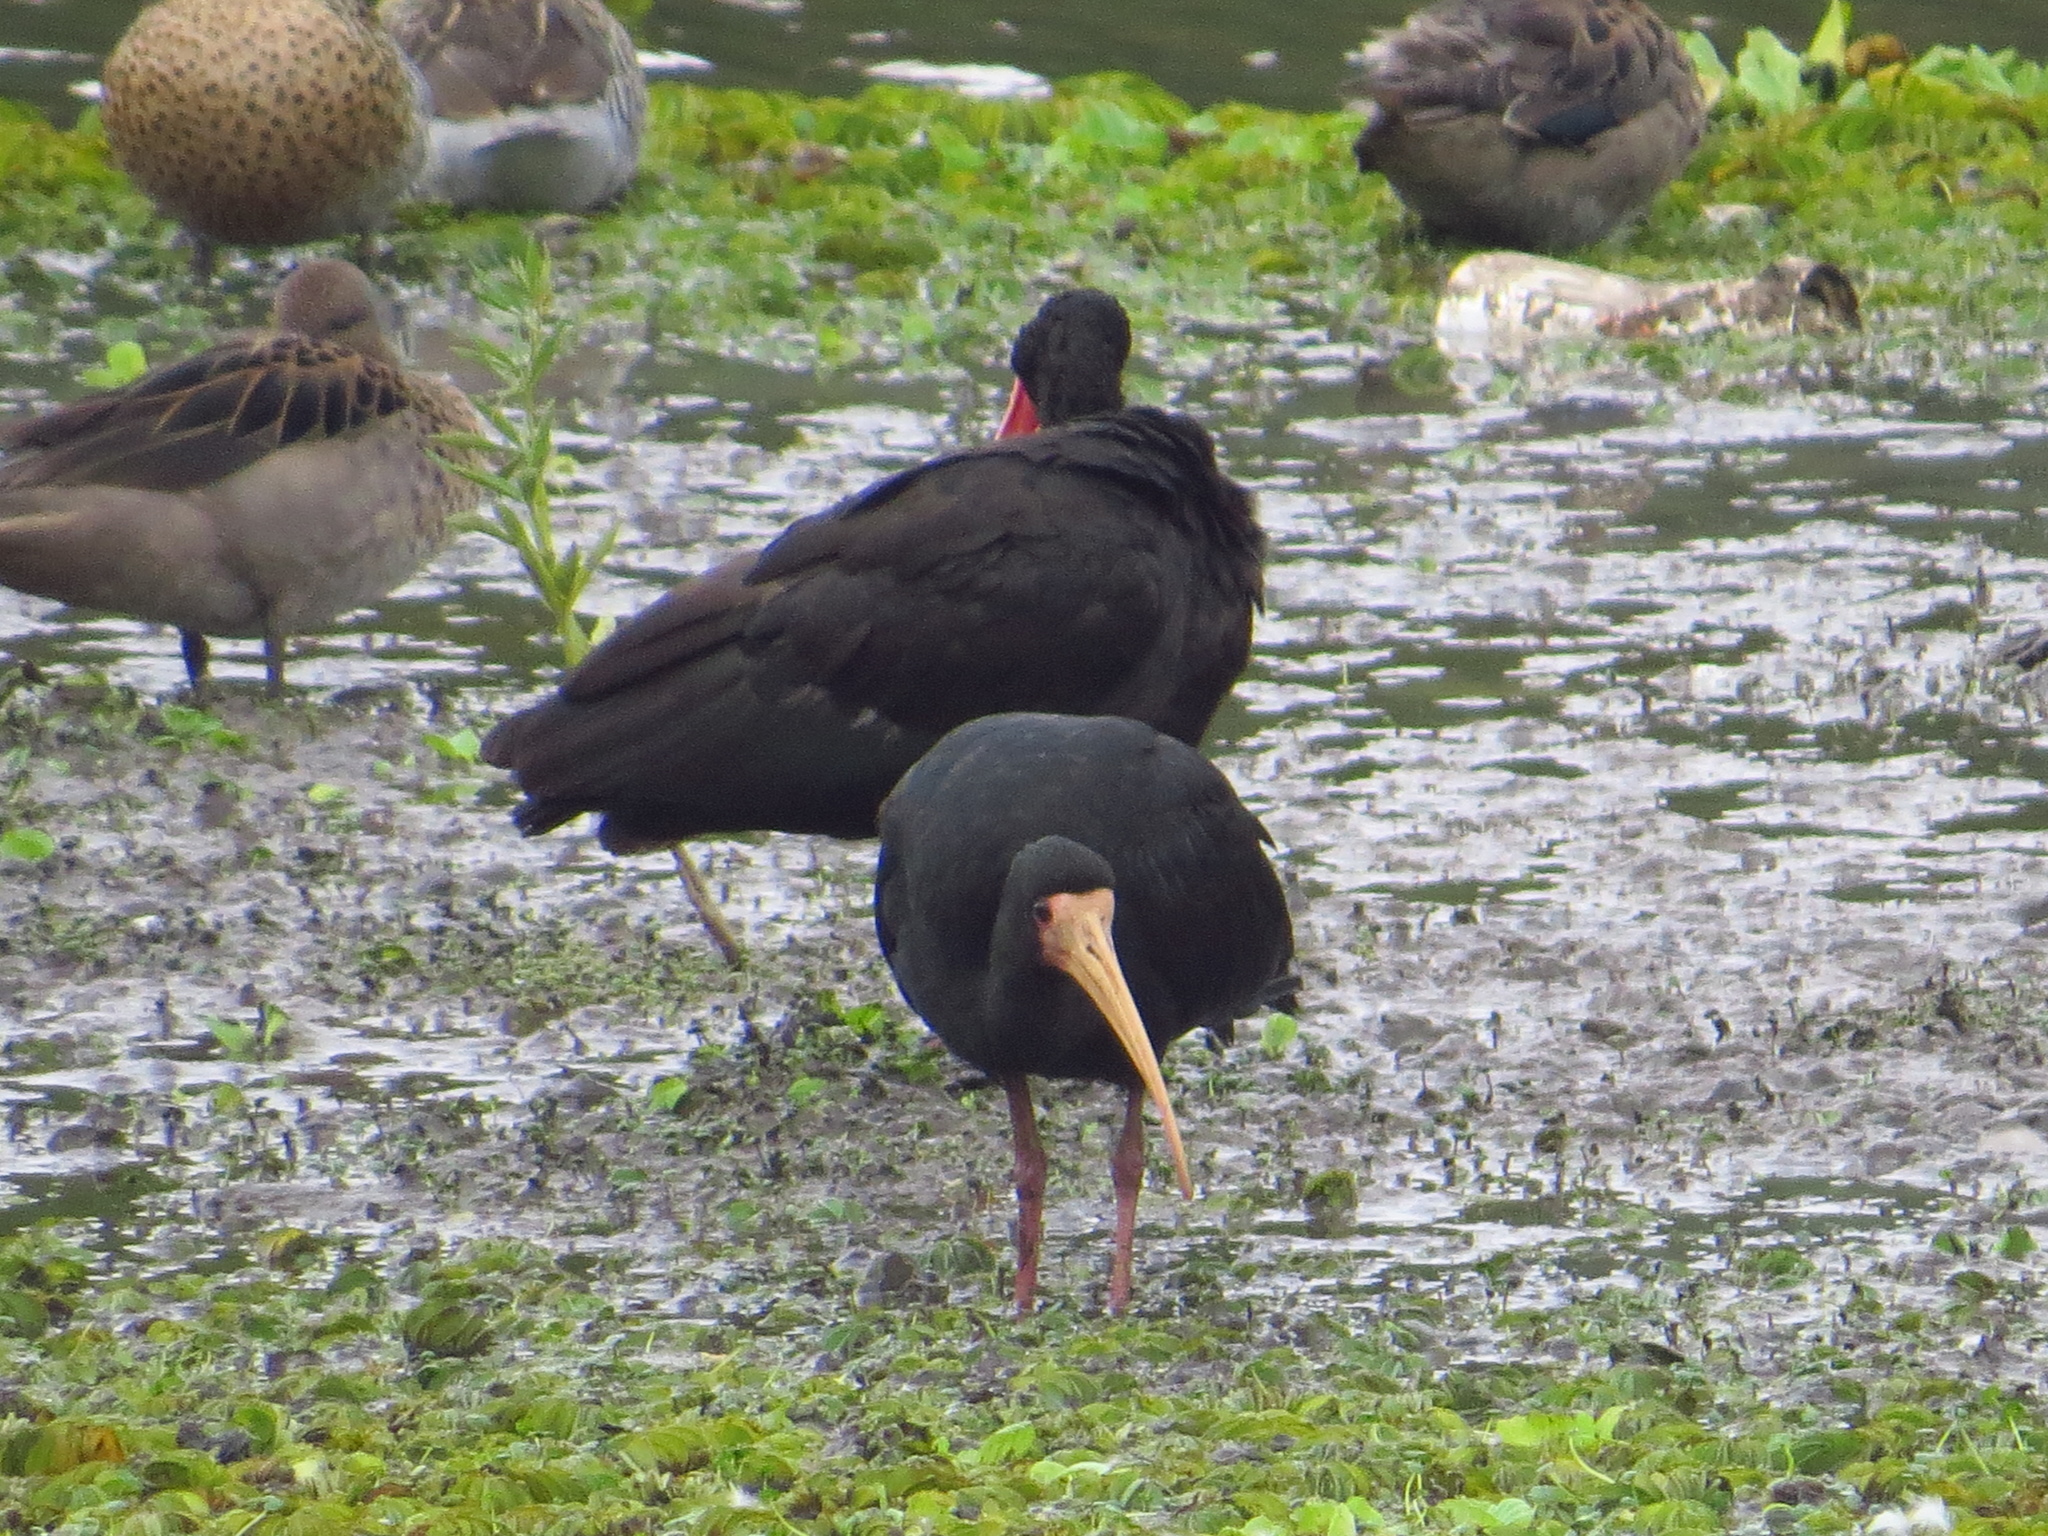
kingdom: Animalia
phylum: Chordata
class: Aves
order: Pelecaniformes
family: Threskiornithidae
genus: Phimosus
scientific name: Phimosus infuscatus
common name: Bare-faced ibis
